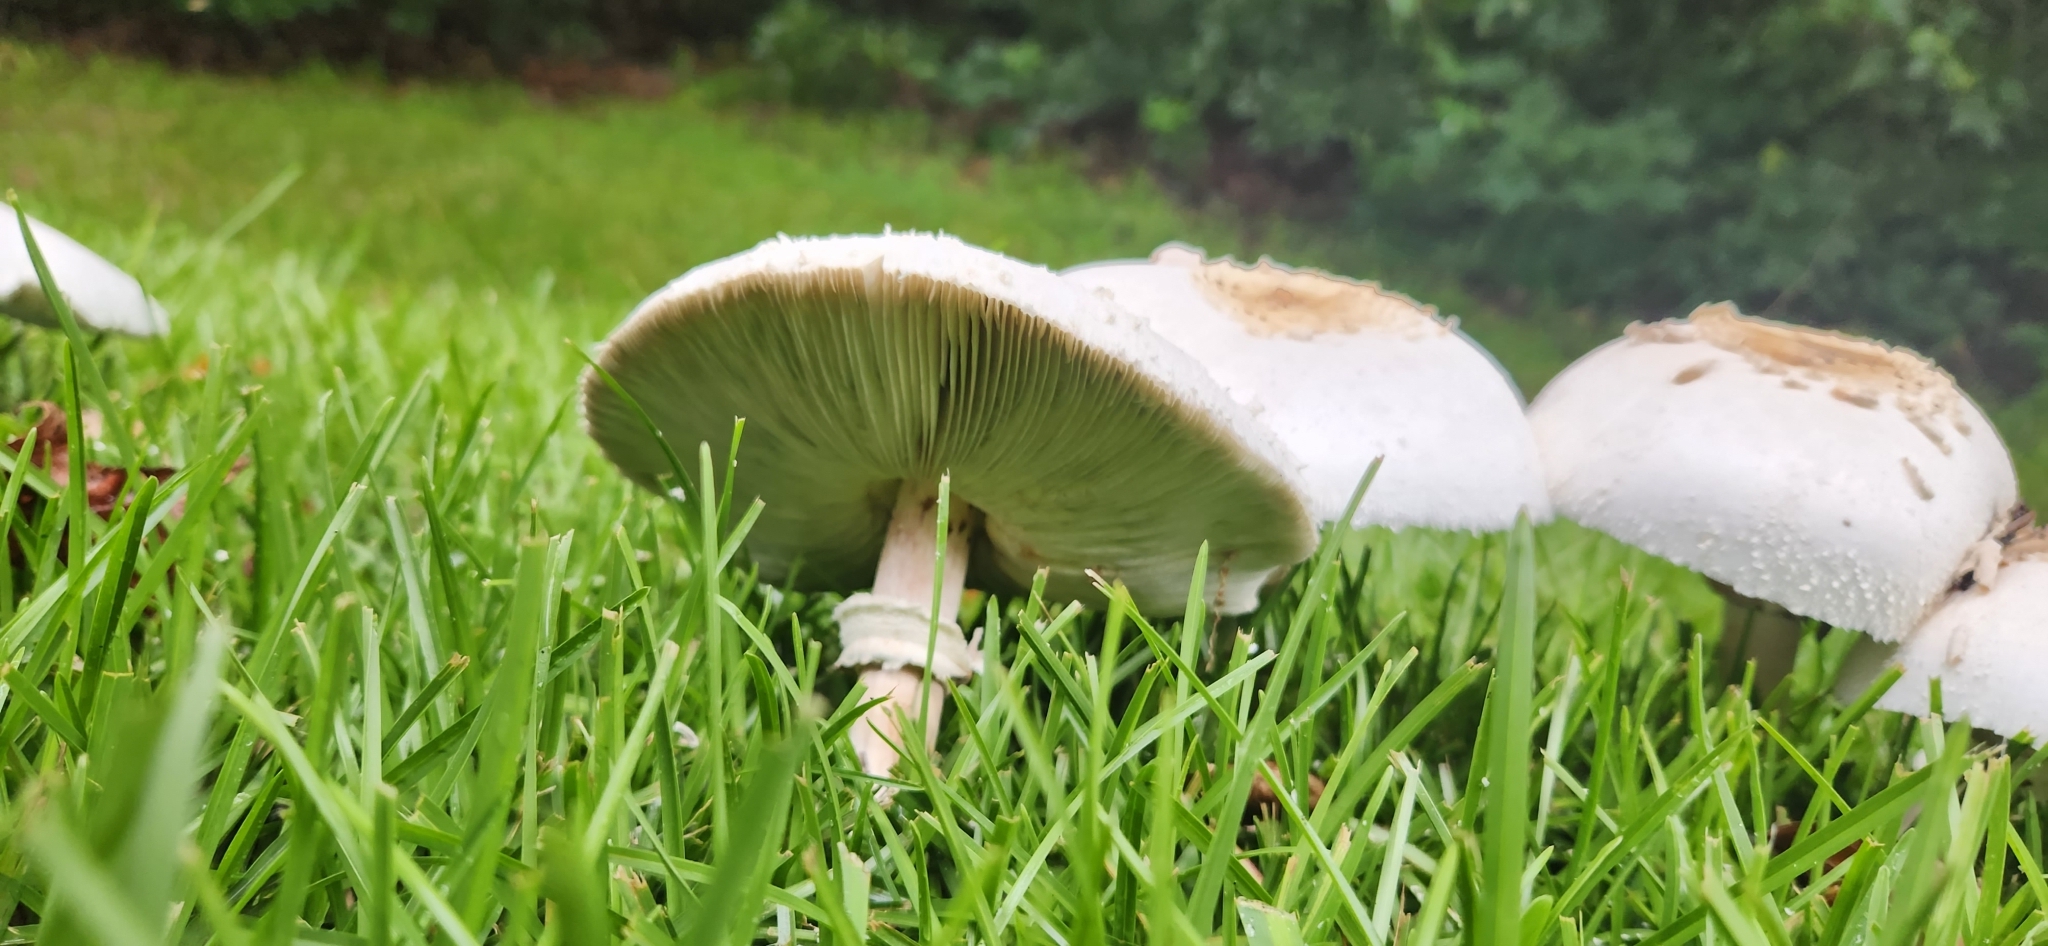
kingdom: Fungi
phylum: Basidiomycota
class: Agaricomycetes
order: Agaricales
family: Agaricaceae
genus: Chlorophyllum
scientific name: Chlorophyllum molybdites
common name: False parasol
